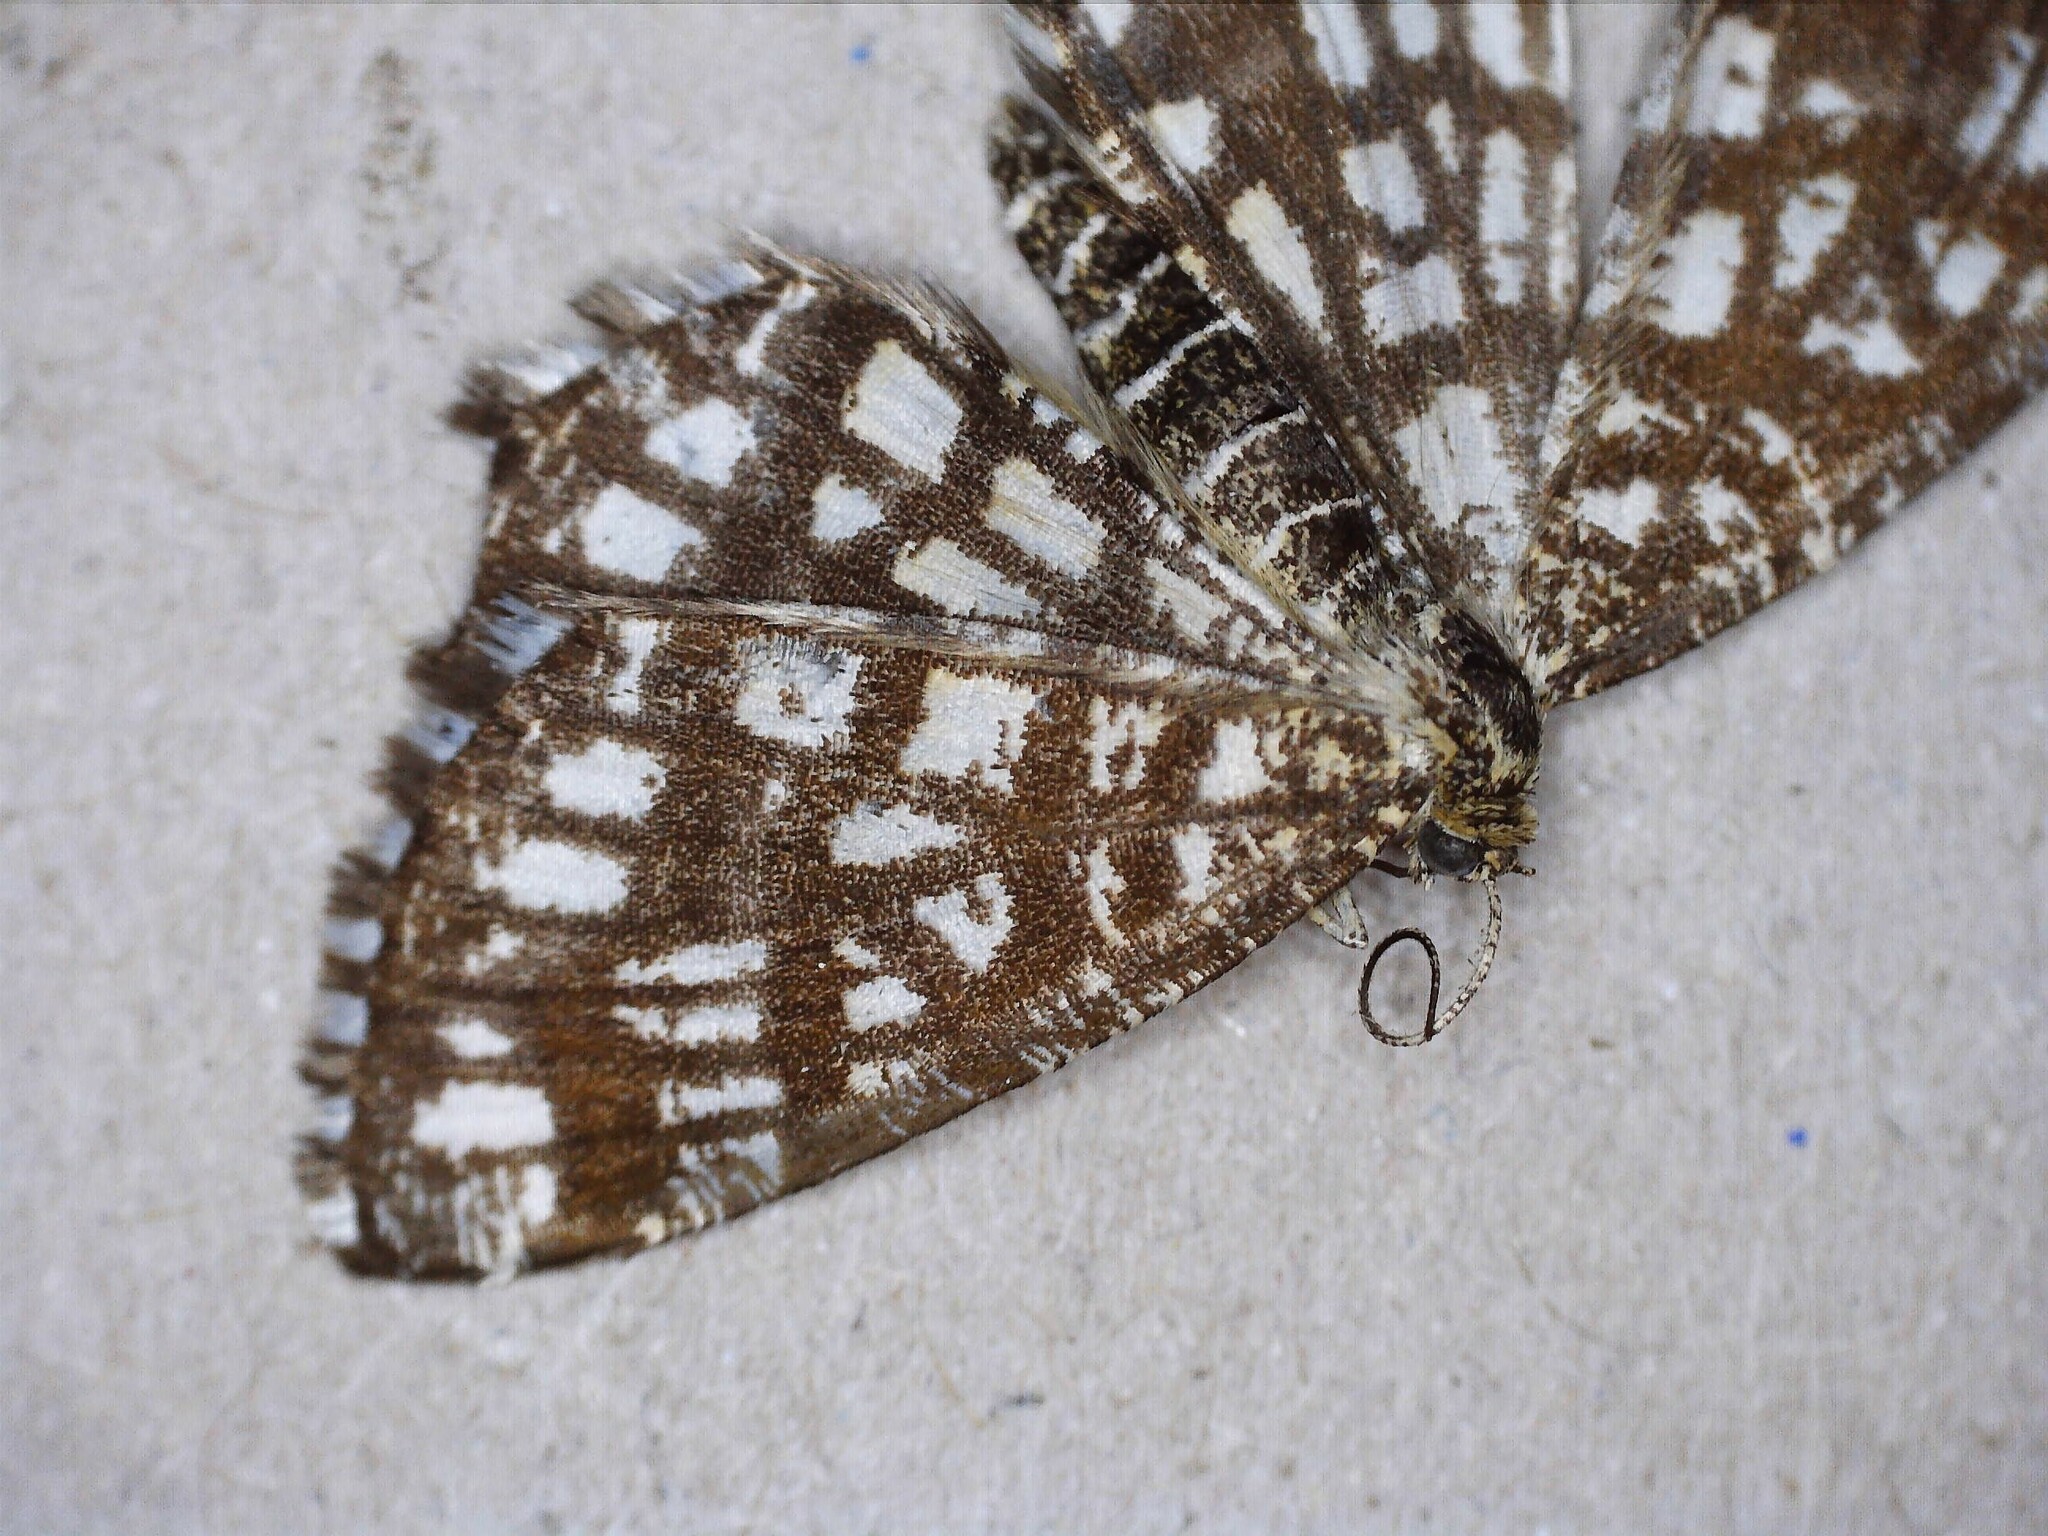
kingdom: Animalia
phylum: Arthropoda
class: Insecta
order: Lepidoptera
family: Geometridae
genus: Chiasmia
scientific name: Chiasmia clathrata
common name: Latticed heath
